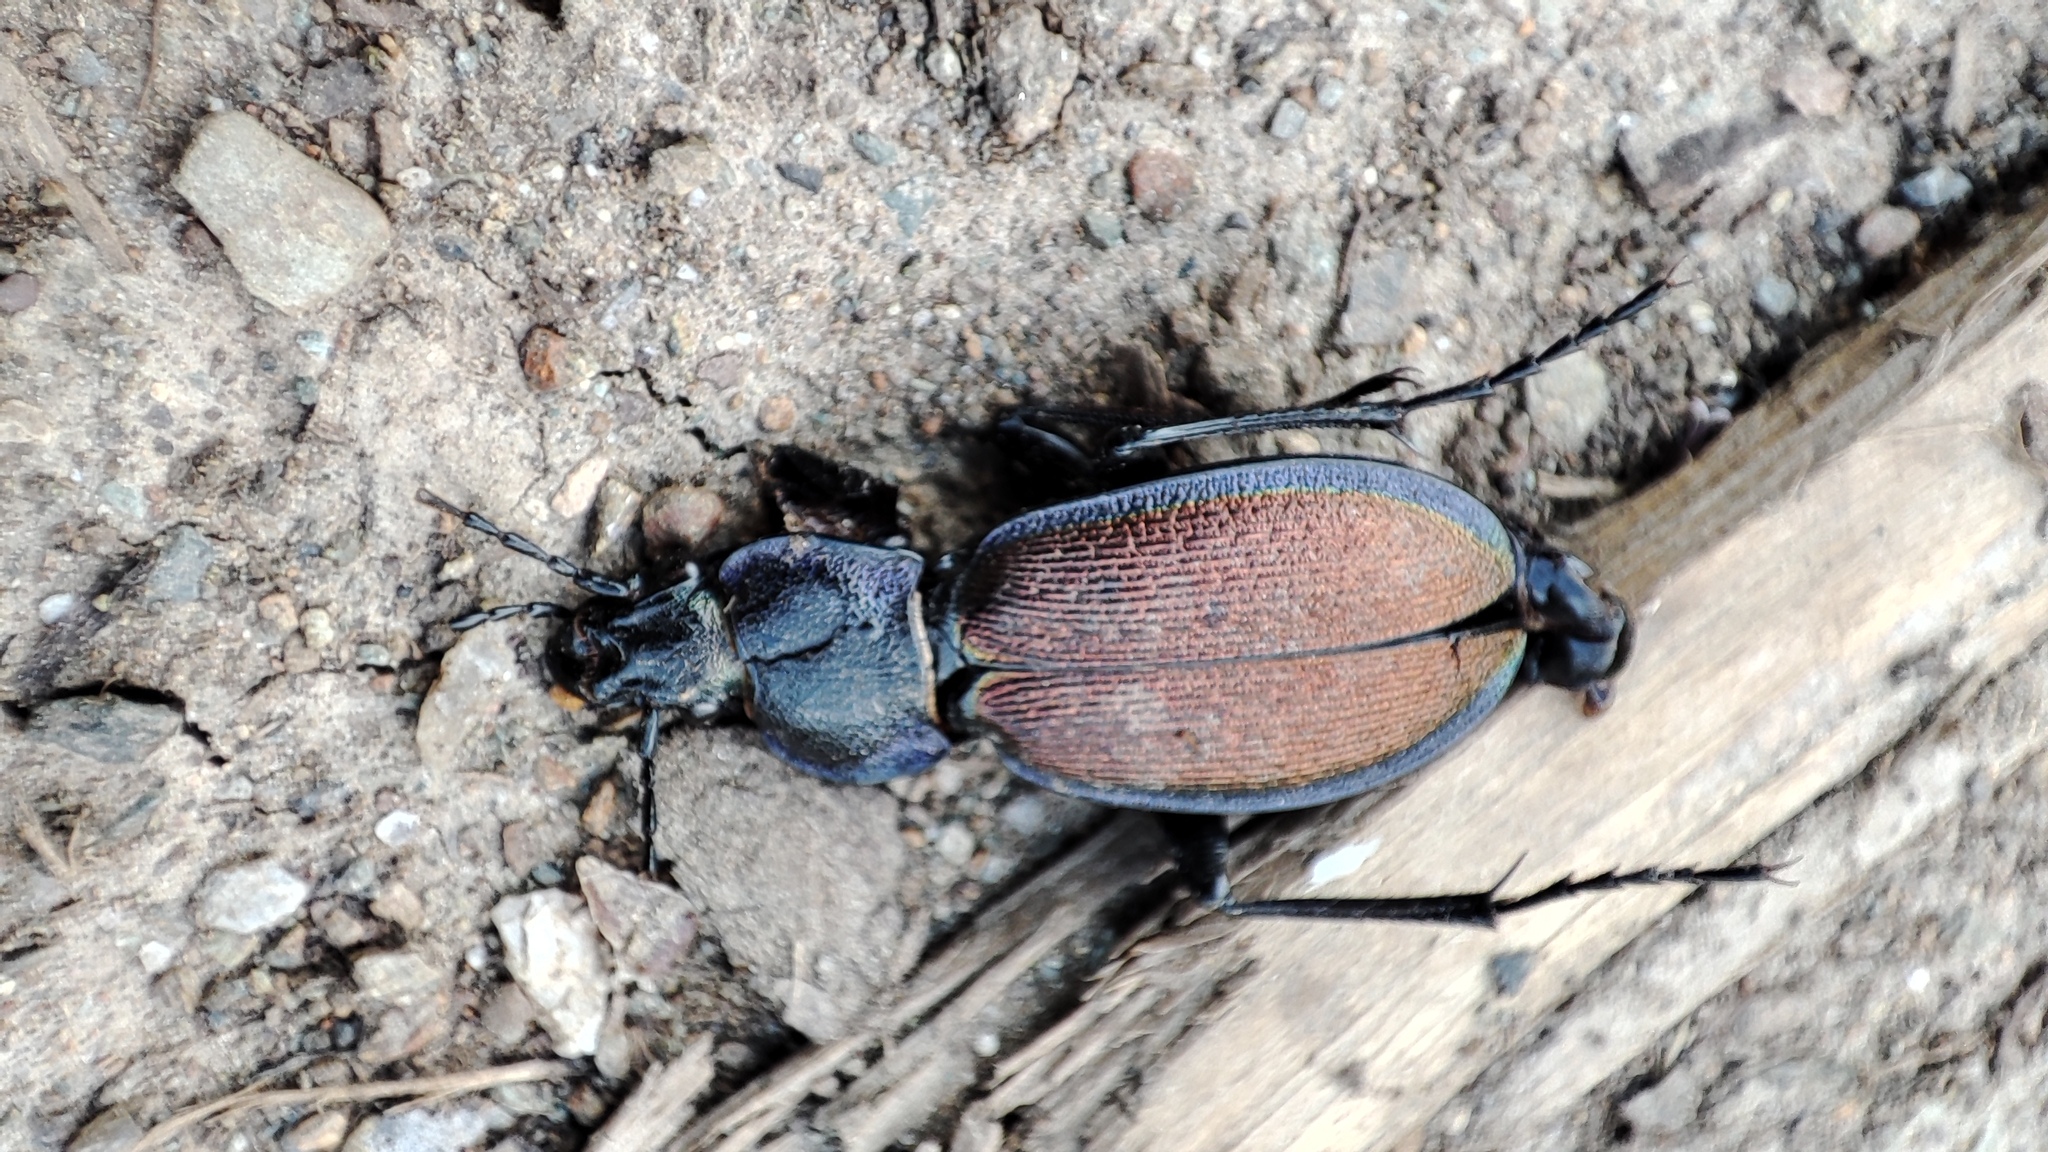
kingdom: Animalia
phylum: Arthropoda
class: Insecta
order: Coleoptera
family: Carabidae
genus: Carabus
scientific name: Carabus regalis
